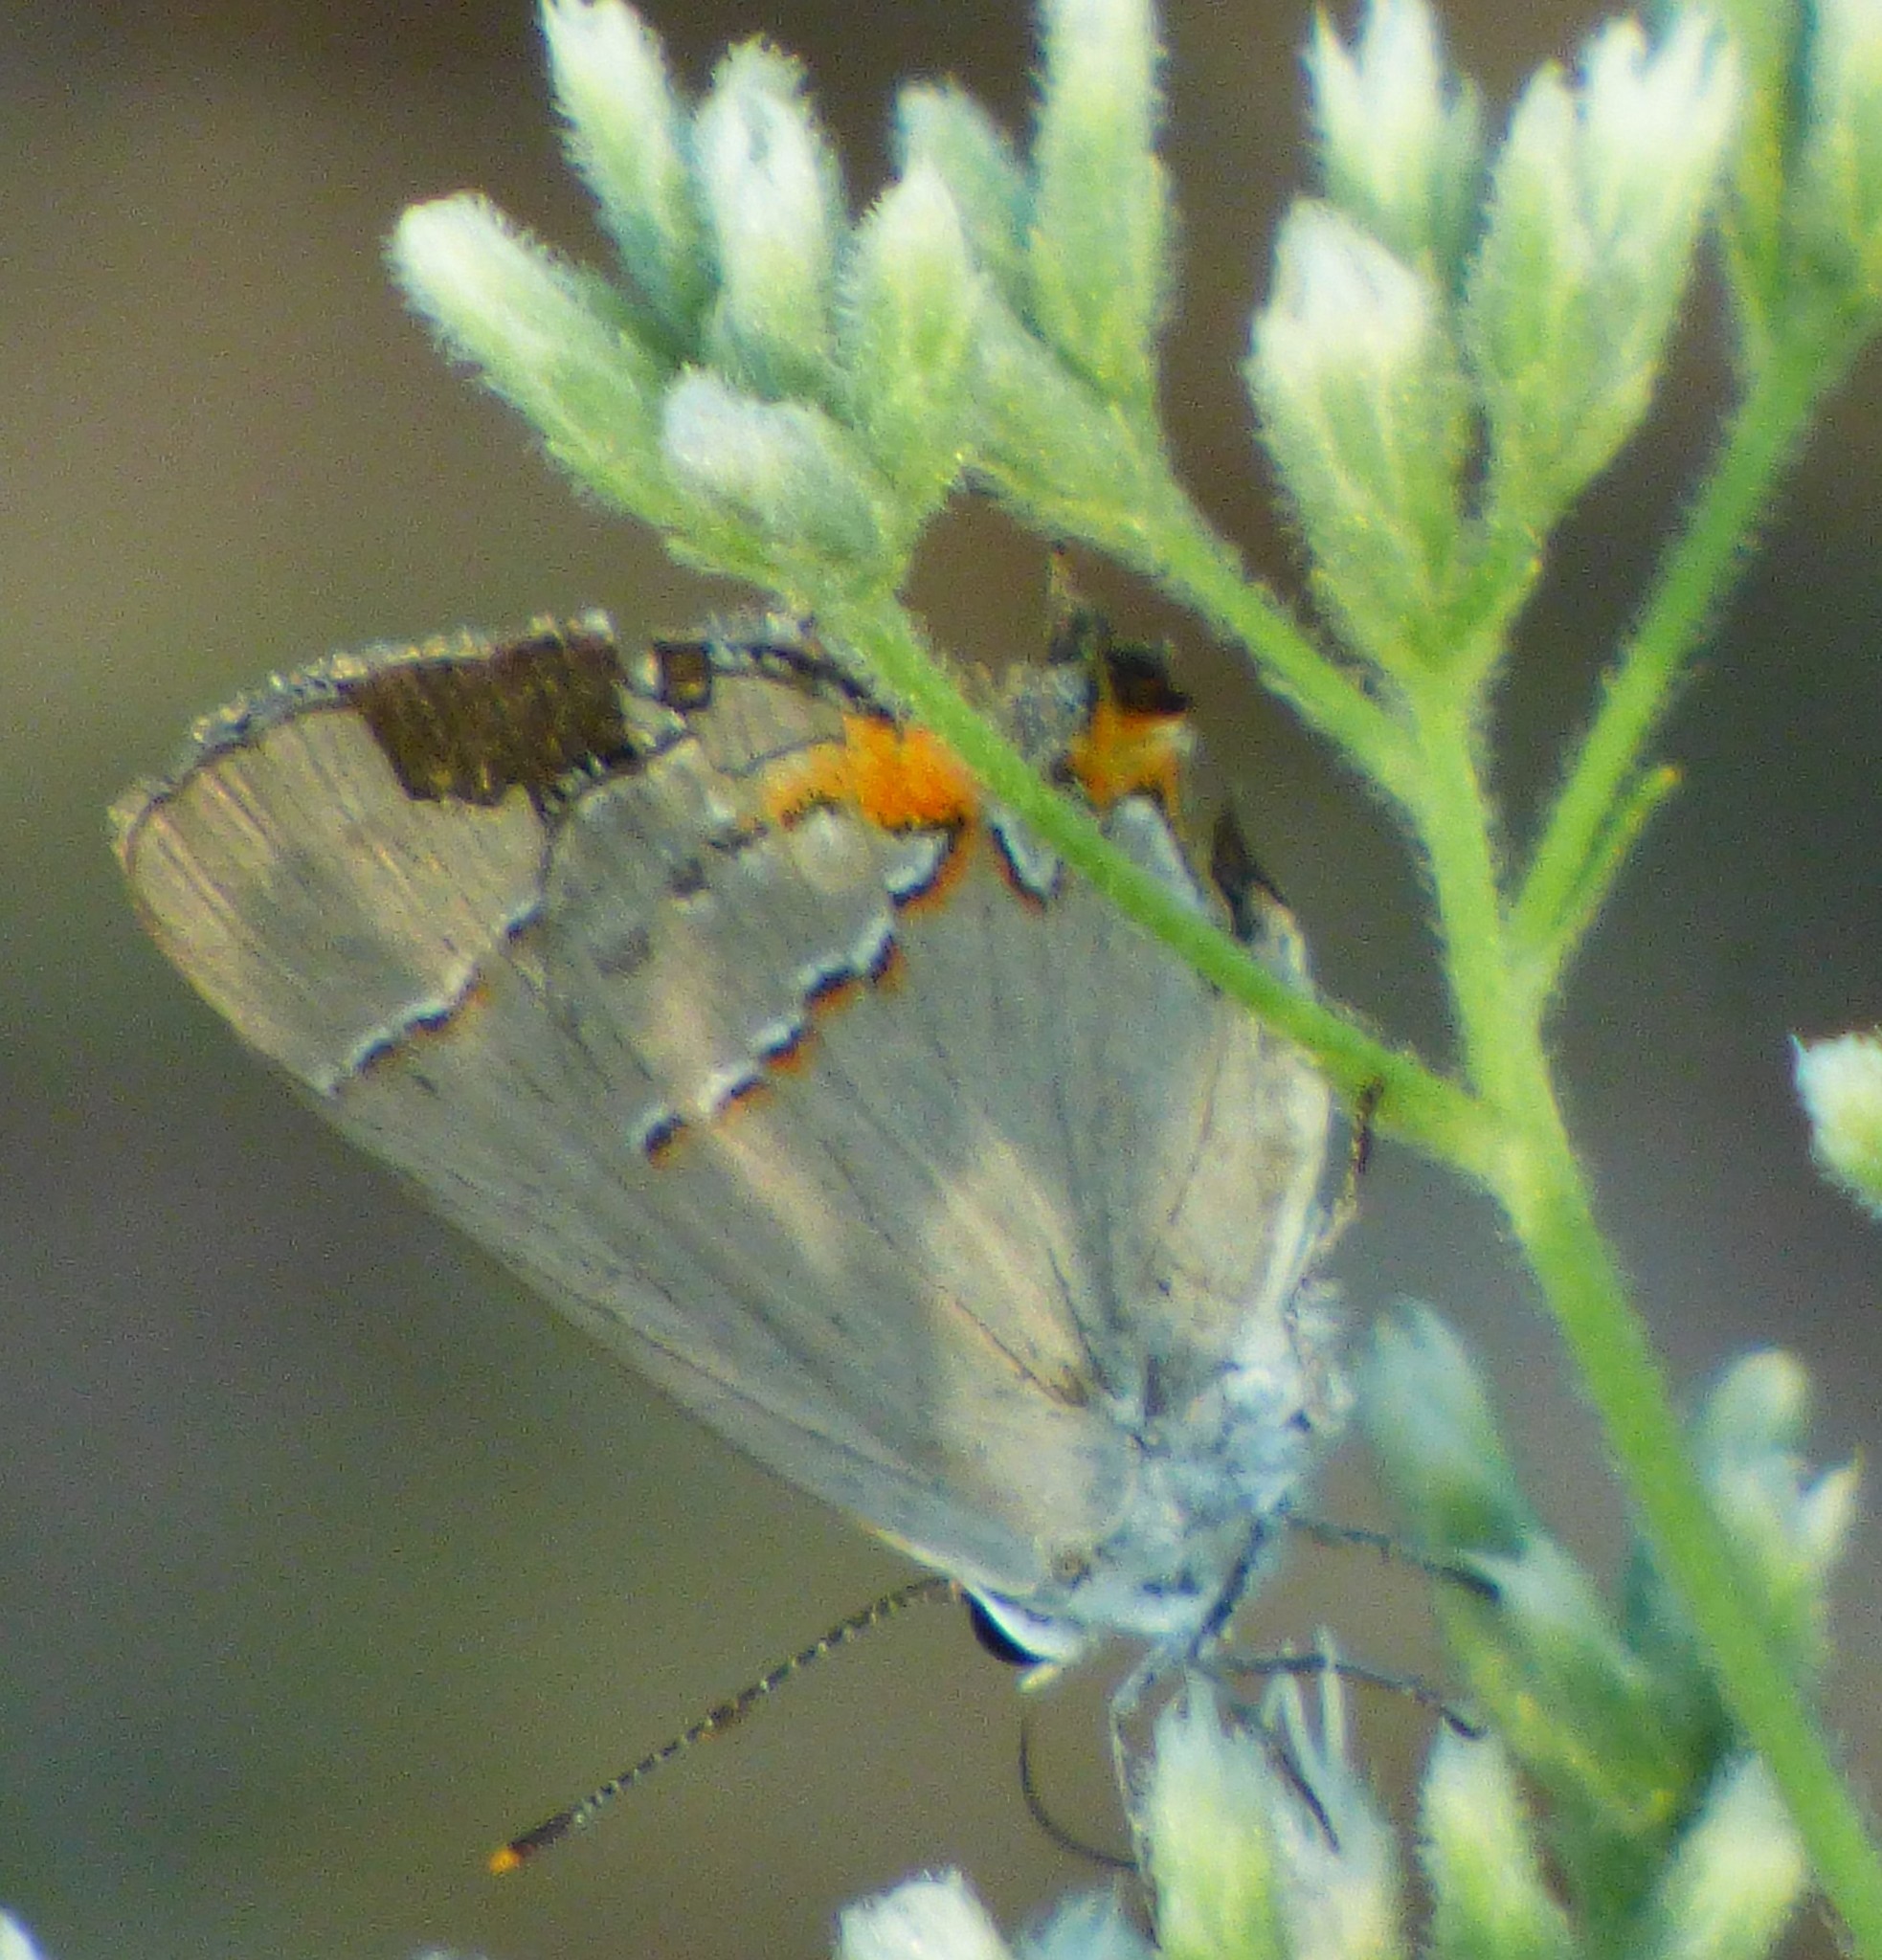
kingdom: Animalia
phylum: Arthropoda
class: Insecta
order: Lepidoptera
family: Lycaenidae
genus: Strymon
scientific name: Strymon melinus
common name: Gray hairstreak
